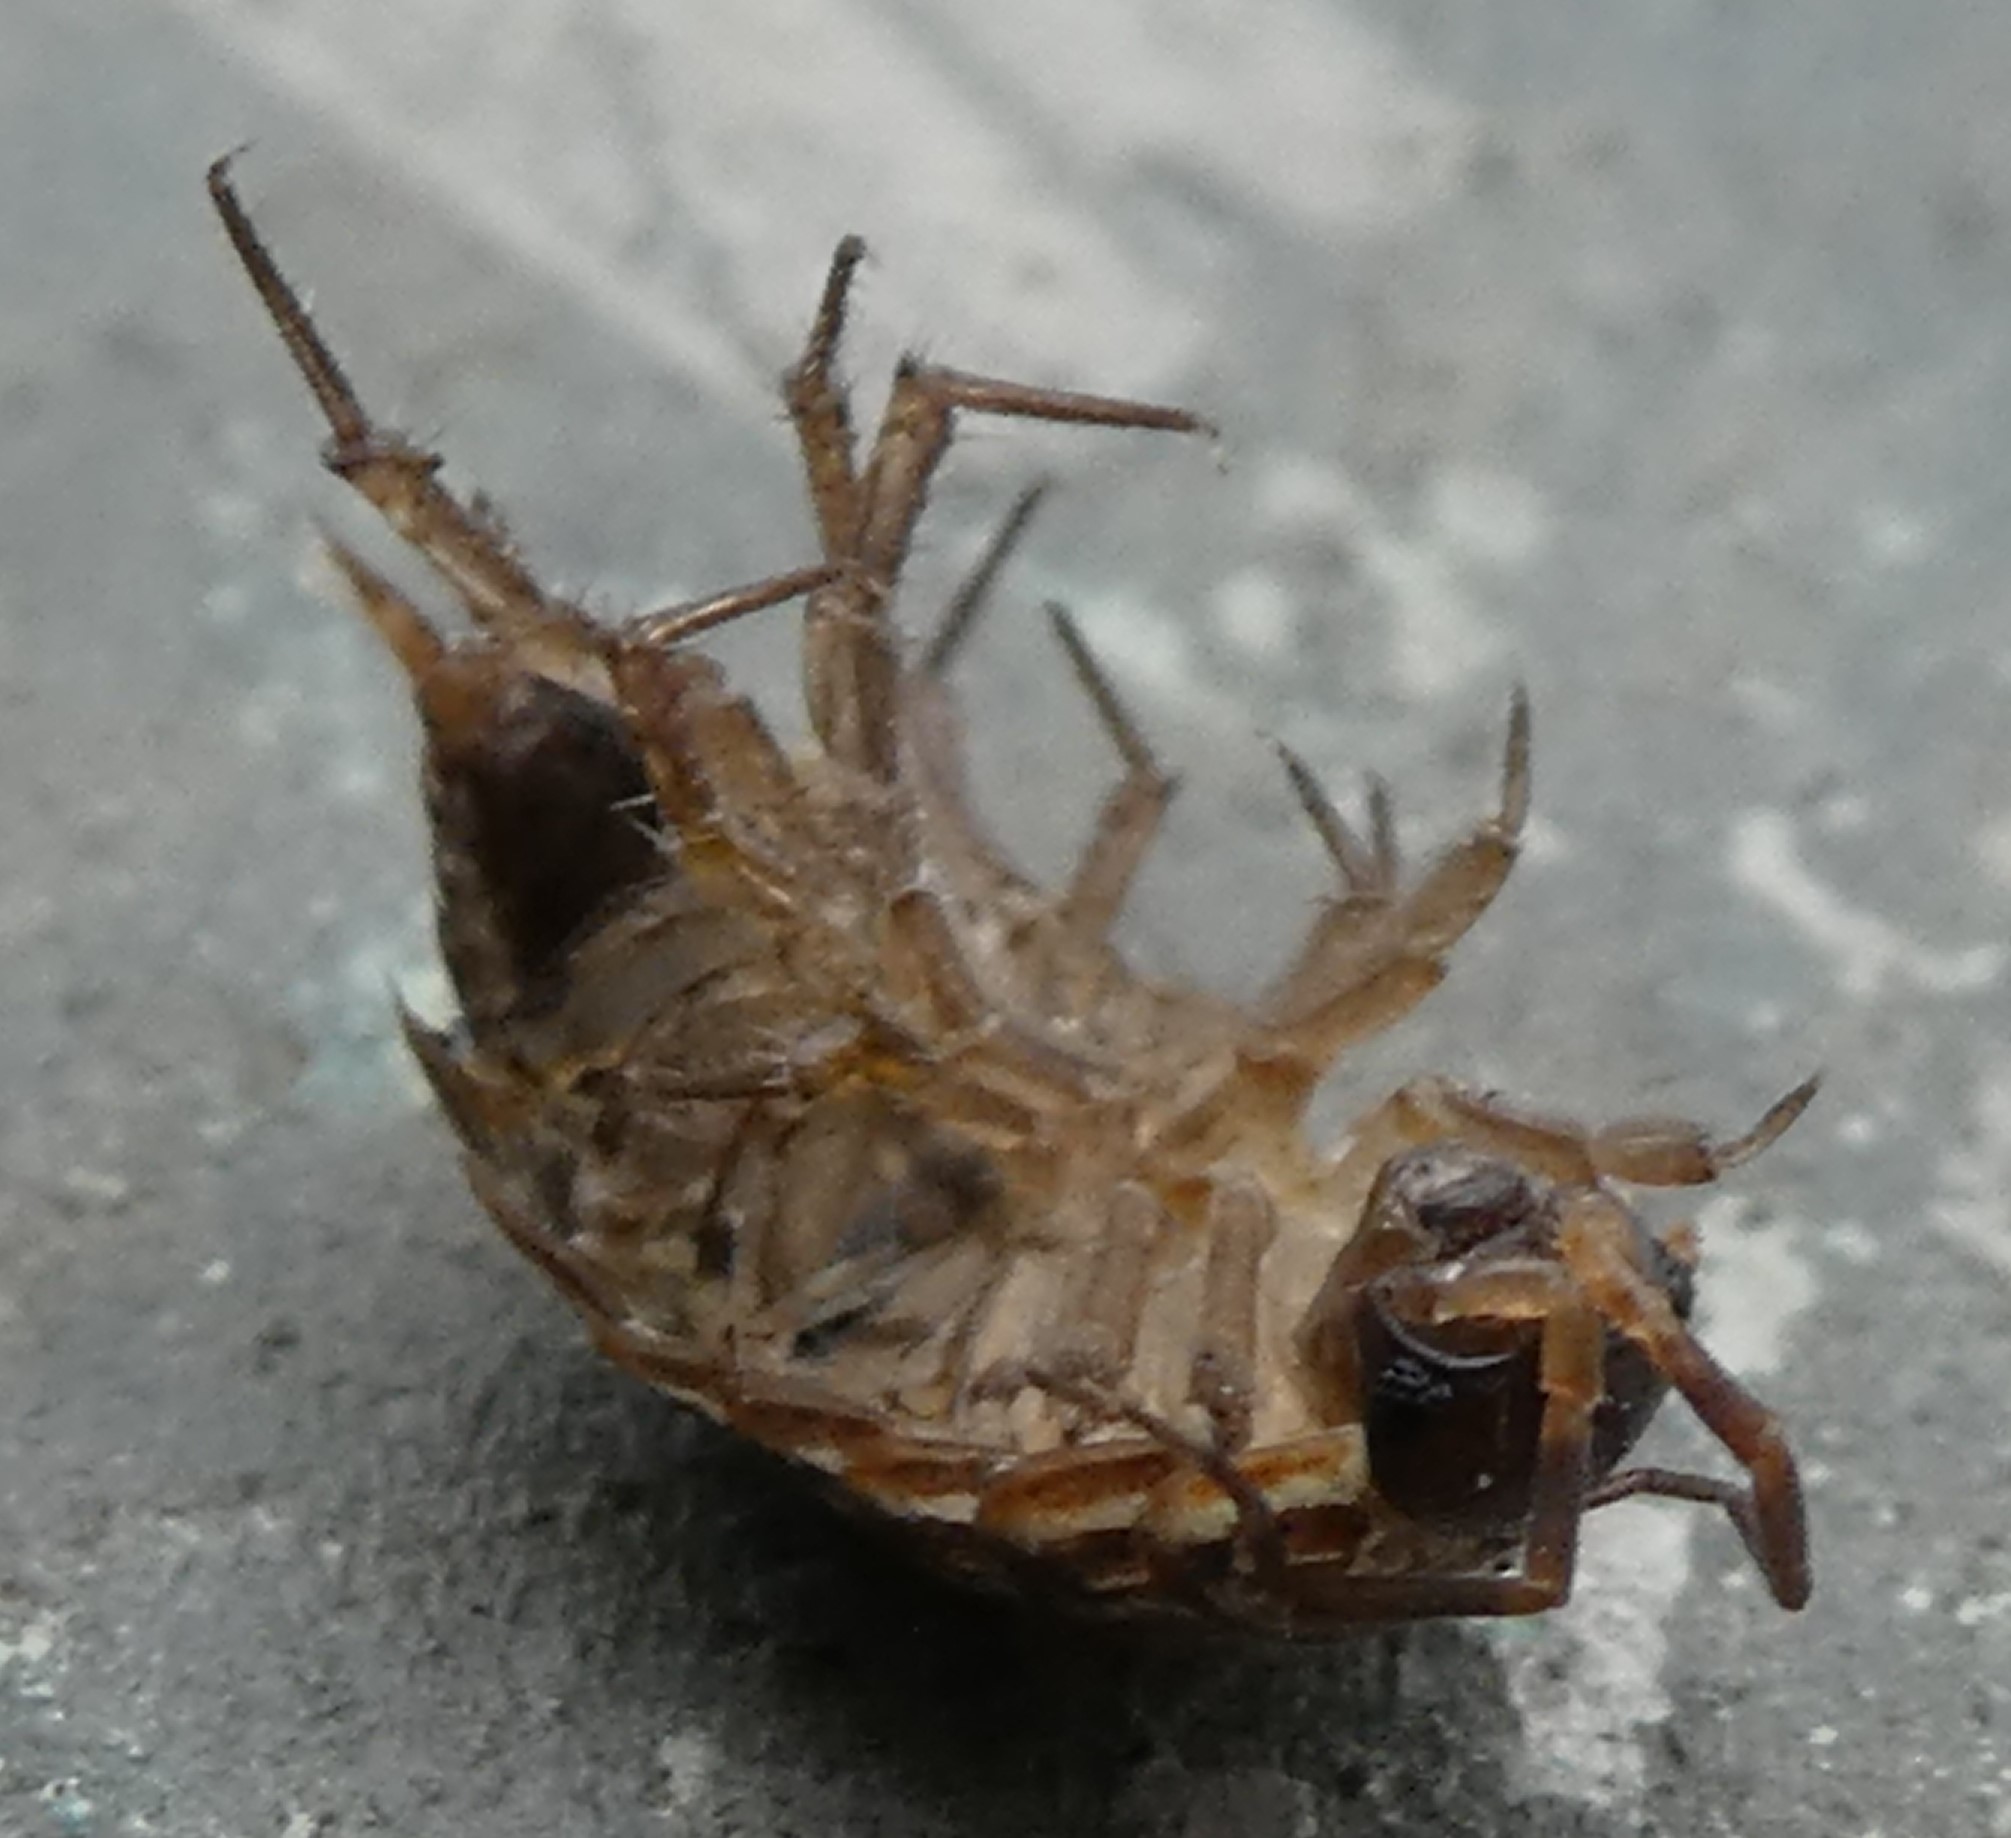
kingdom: Animalia
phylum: Arthropoda
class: Malacostraca
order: Isopoda
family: Philosciidae
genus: Philoscia
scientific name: Philoscia muscorum
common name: Common striped woodlouse
